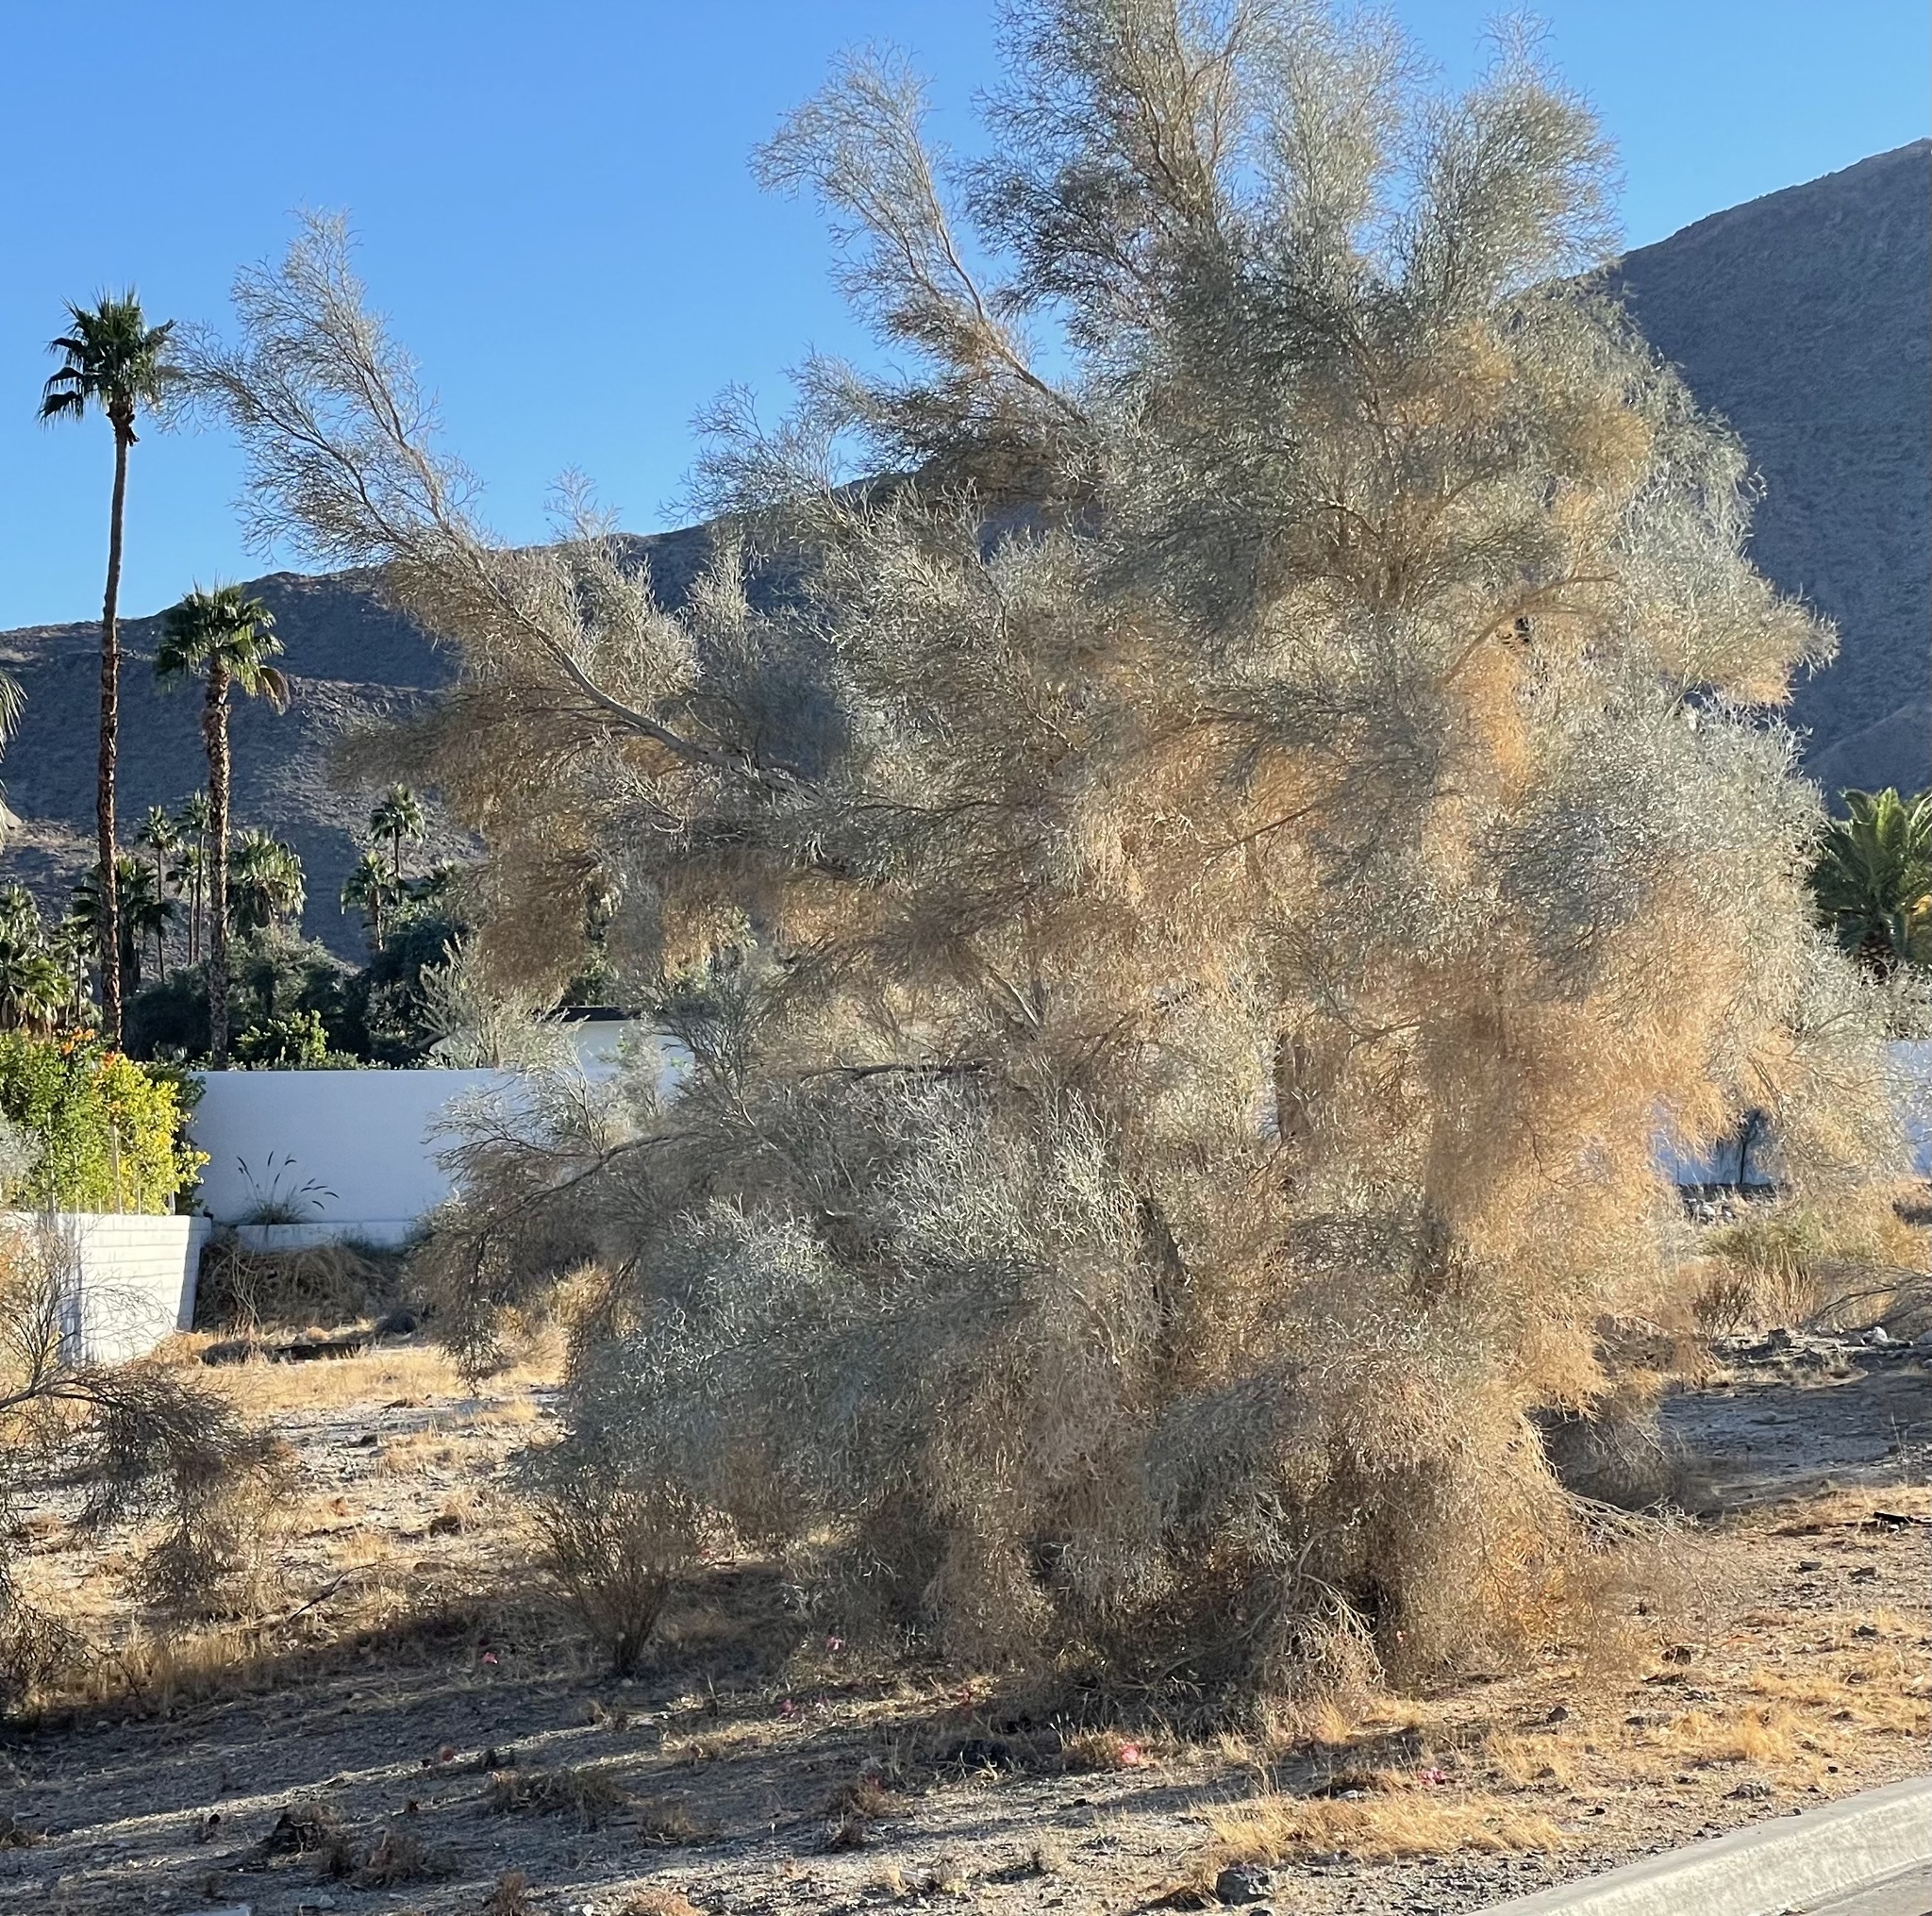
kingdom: Plantae
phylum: Tracheophyta
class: Magnoliopsida
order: Fabales
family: Fabaceae
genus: Psorothamnus
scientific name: Psorothamnus spinosus
